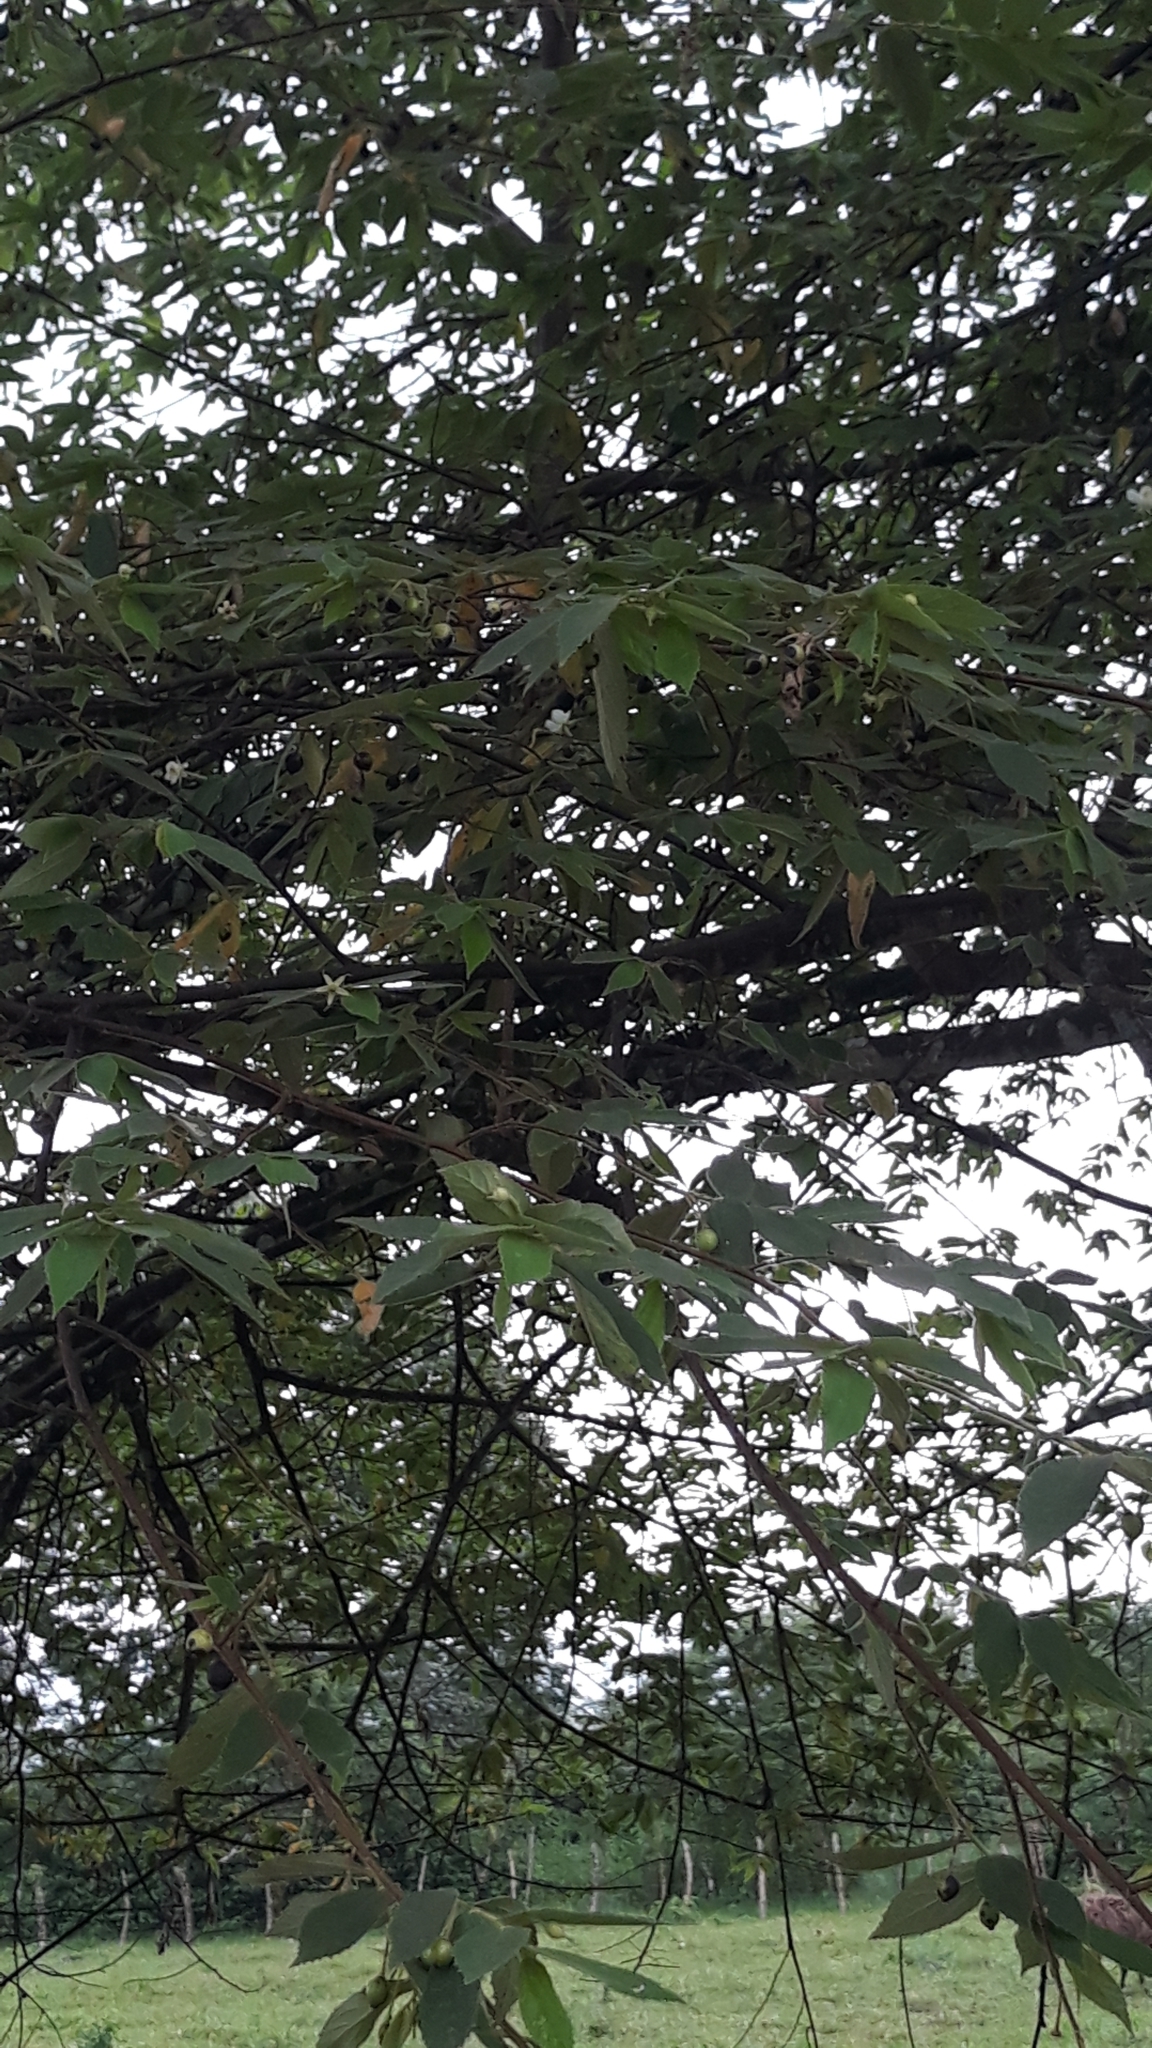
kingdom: Plantae
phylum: Tracheophyta
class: Magnoliopsida
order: Malvales
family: Muntingiaceae
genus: Muntingia
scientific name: Muntingia calabura
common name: Strawberrytree
